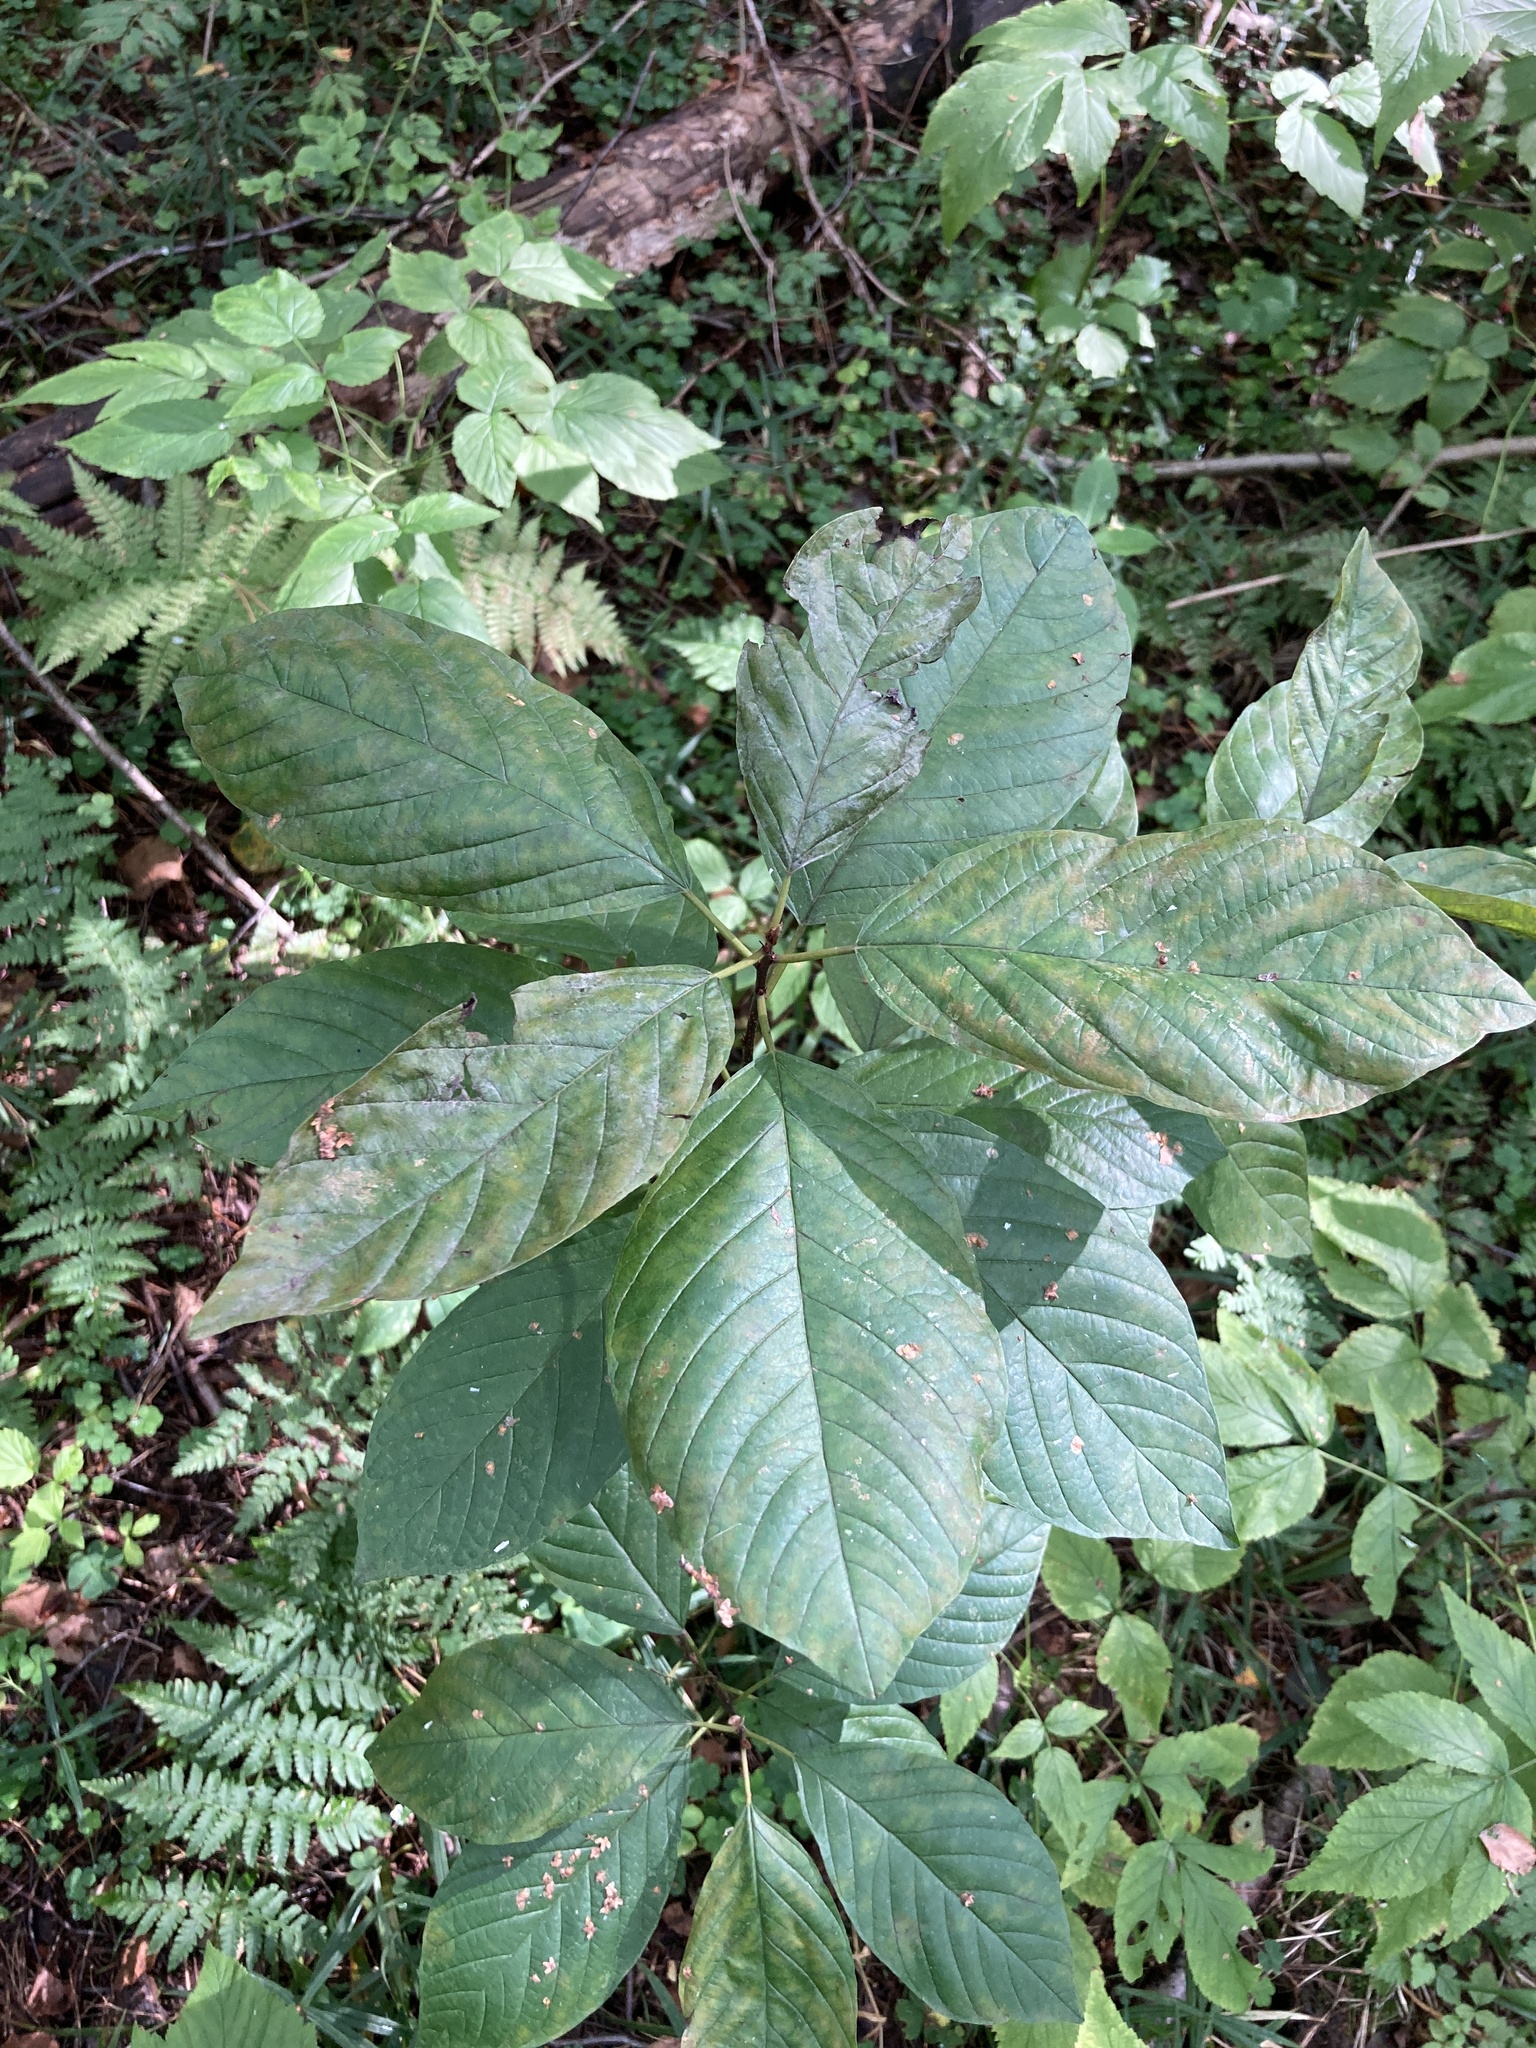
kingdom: Plantae
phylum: Tracheophyta
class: Magnoliopsida
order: Rosales
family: Rhamnaceae
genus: Frangula
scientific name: Frangula alnus
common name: Alder buckthorn
